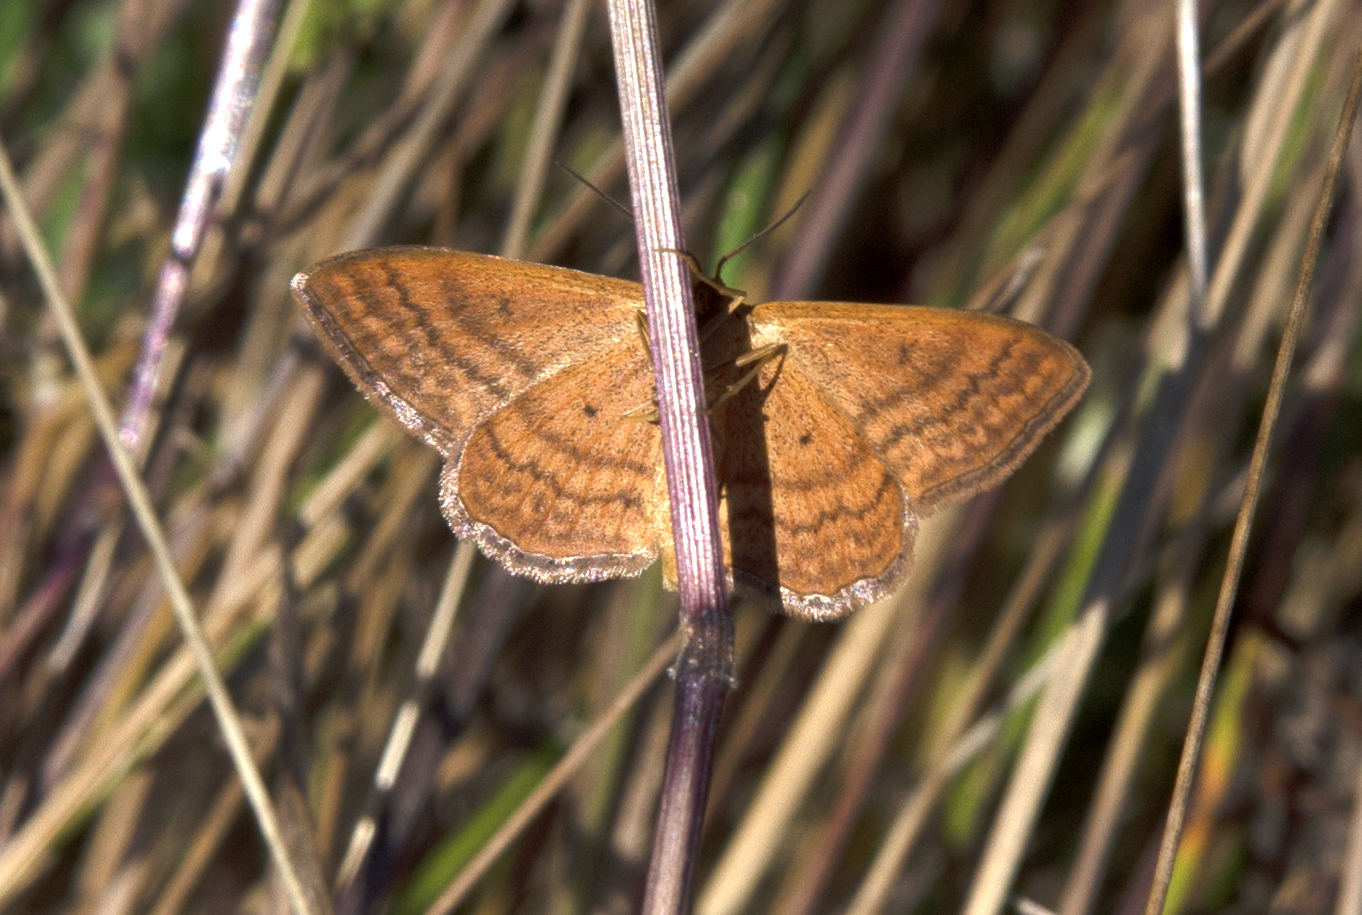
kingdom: Animalia
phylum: Arthropoda
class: Insecta
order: Lepidoptera
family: Geometridae
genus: Idaea
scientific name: Idaea ochrata
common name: Bright wave
